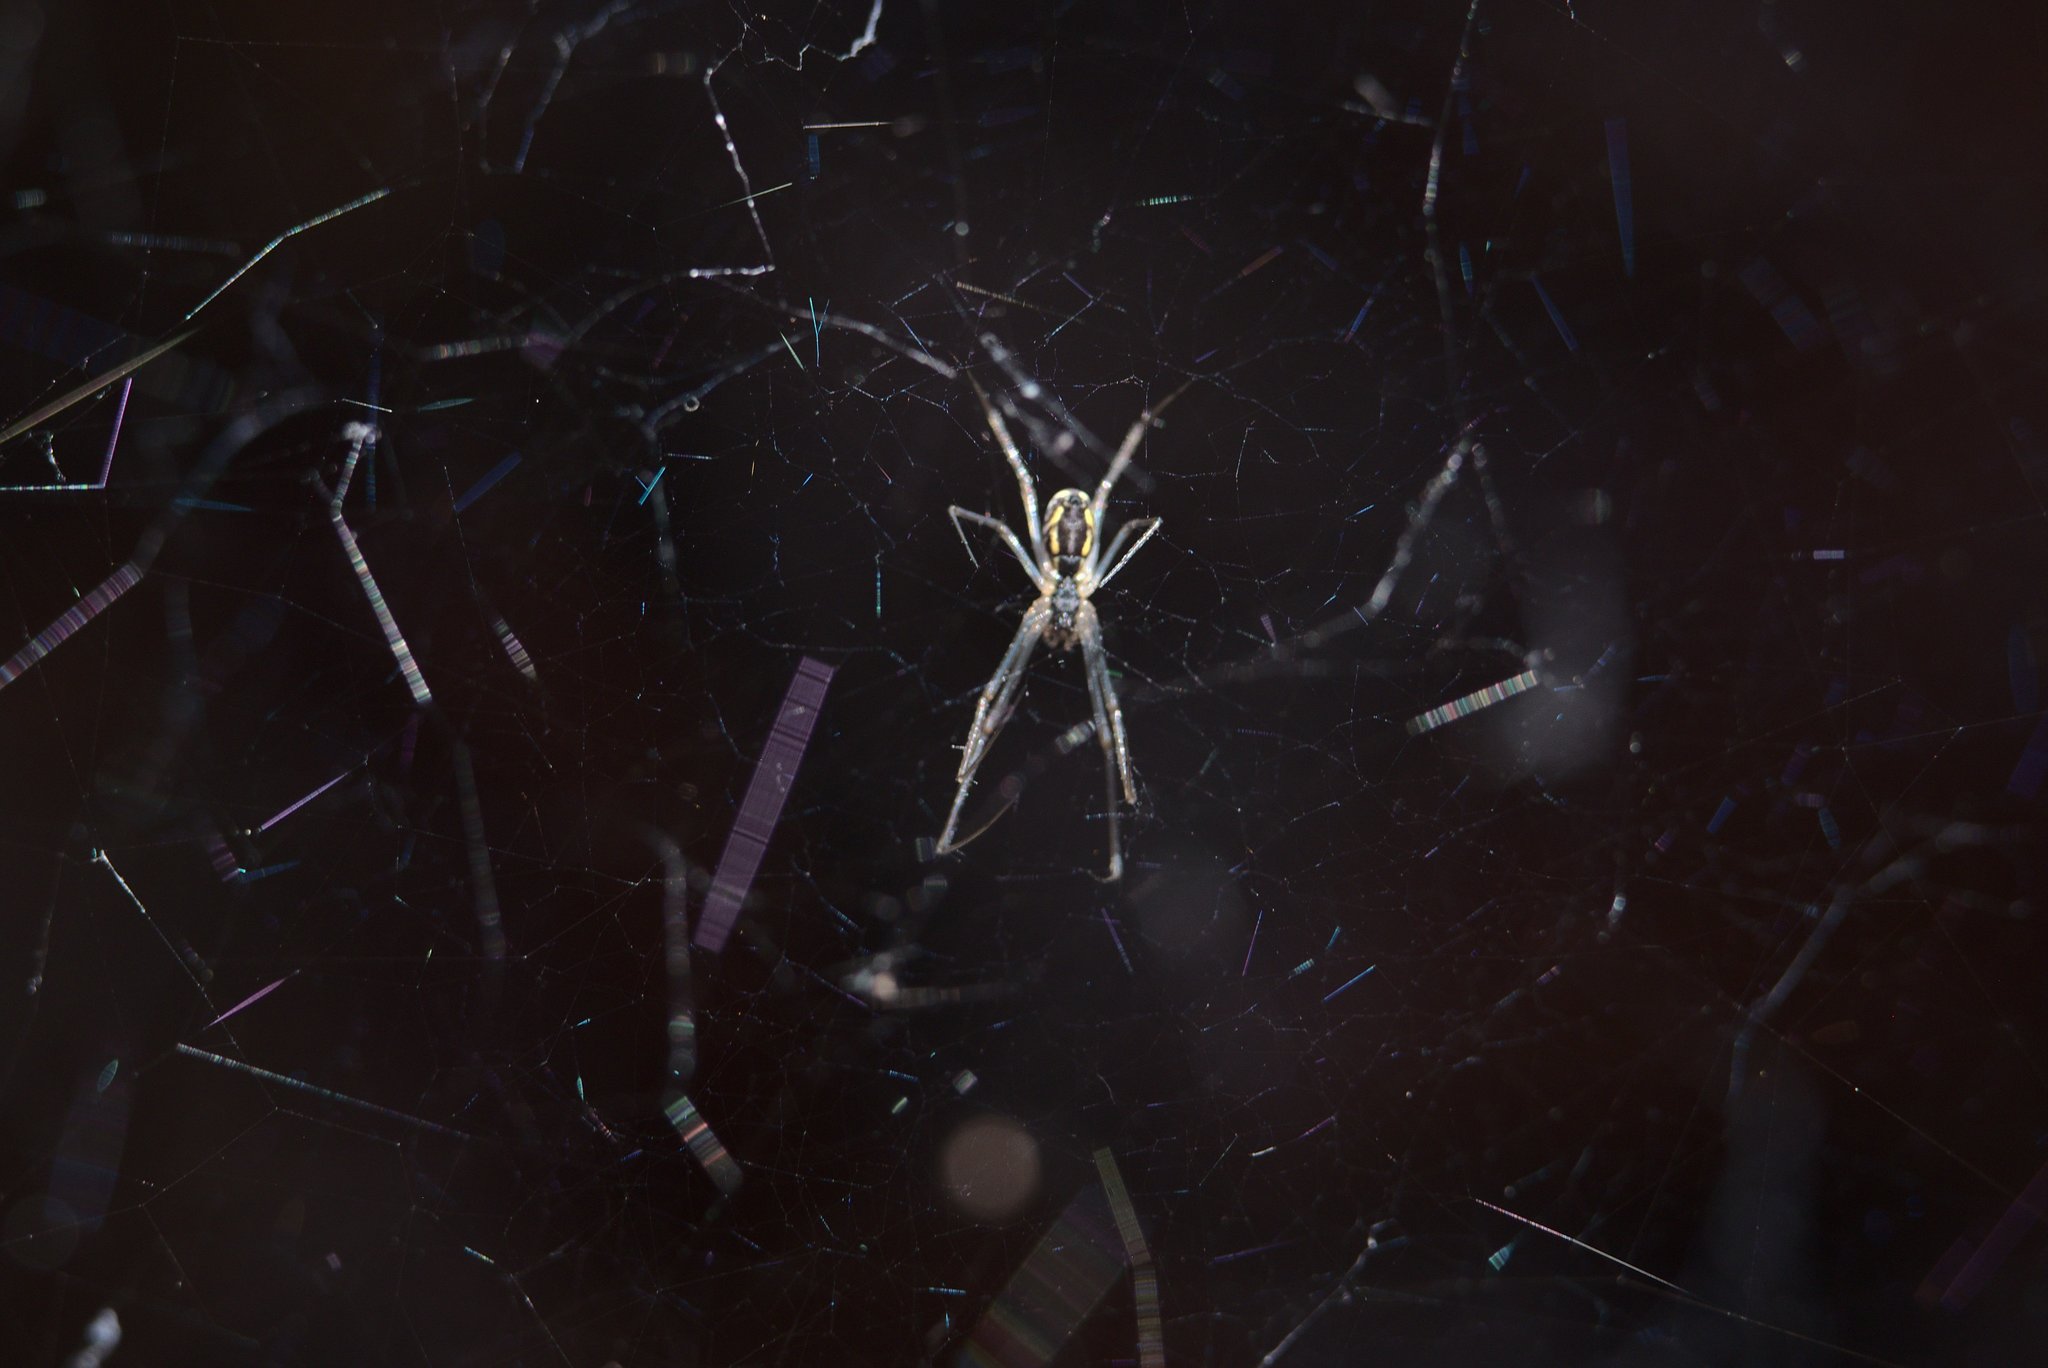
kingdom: Animalia
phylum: Arthropoda
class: Arachnida
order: Araneae
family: Linyphiidae
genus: Neriene
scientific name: Neriene radiata
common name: Filmy dome spider
